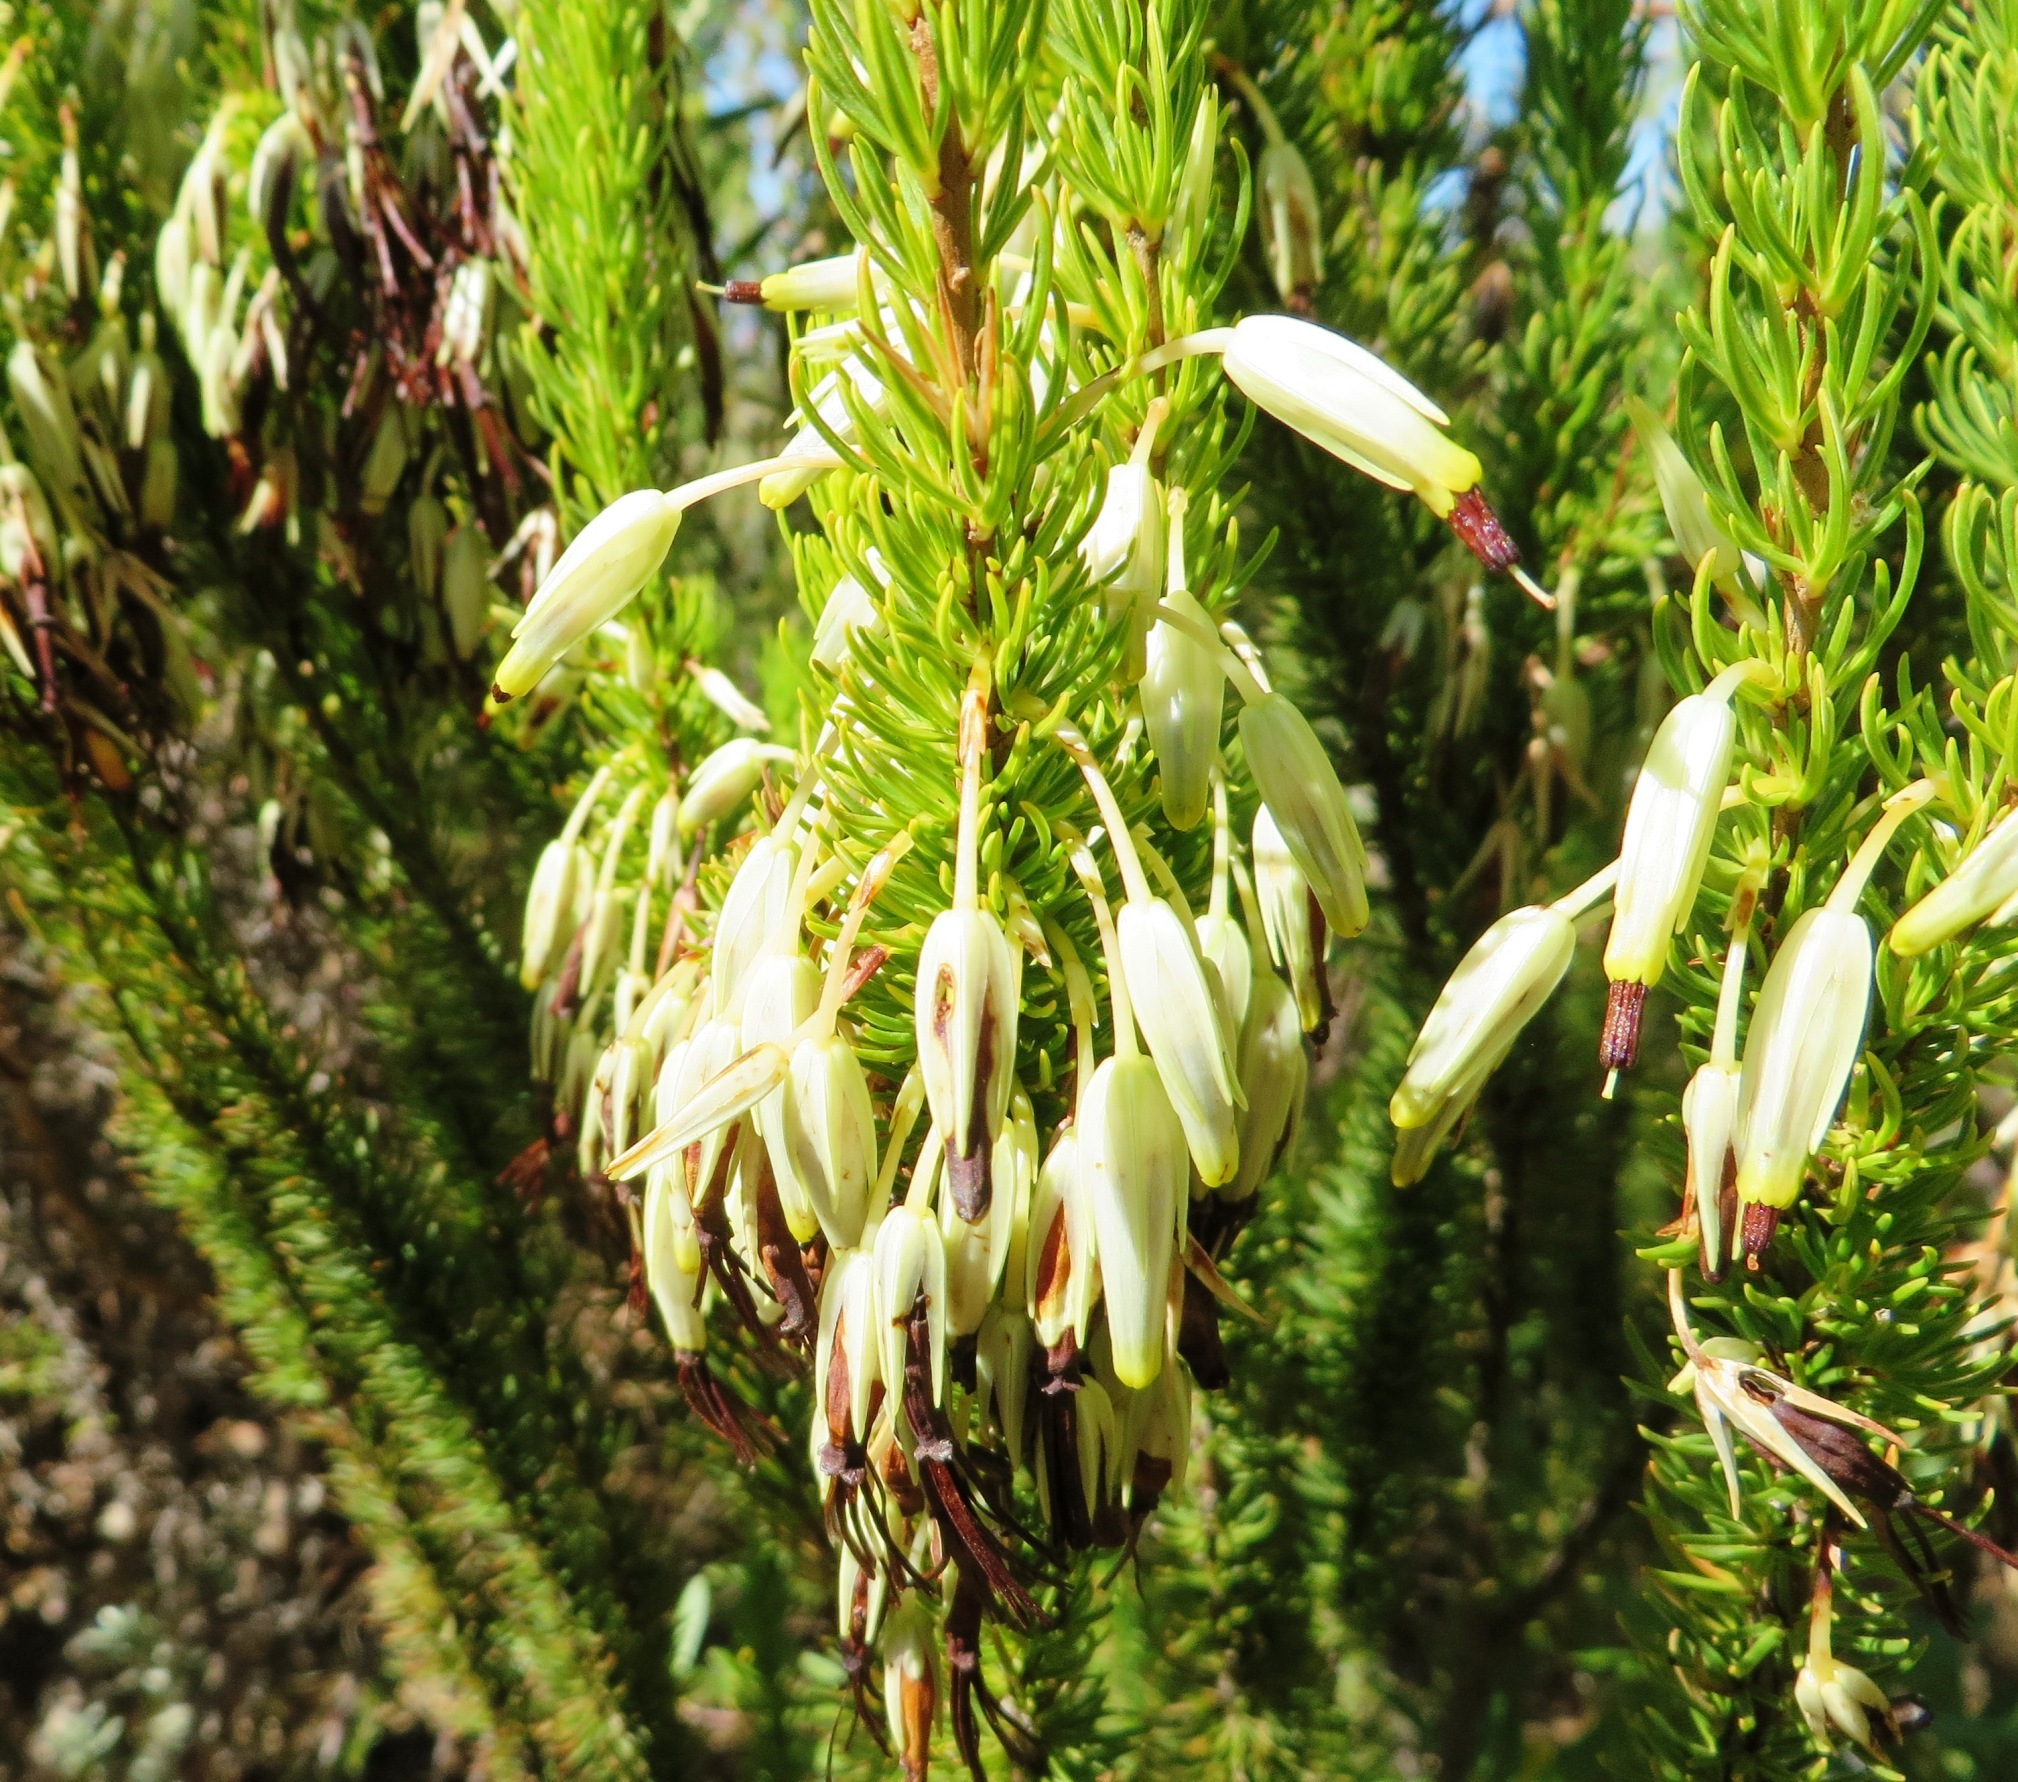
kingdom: Plantae
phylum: Tracheophyta
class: Magnoliopsida
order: Ericales
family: Ericaceae
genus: Erica
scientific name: Erica plukenetii
